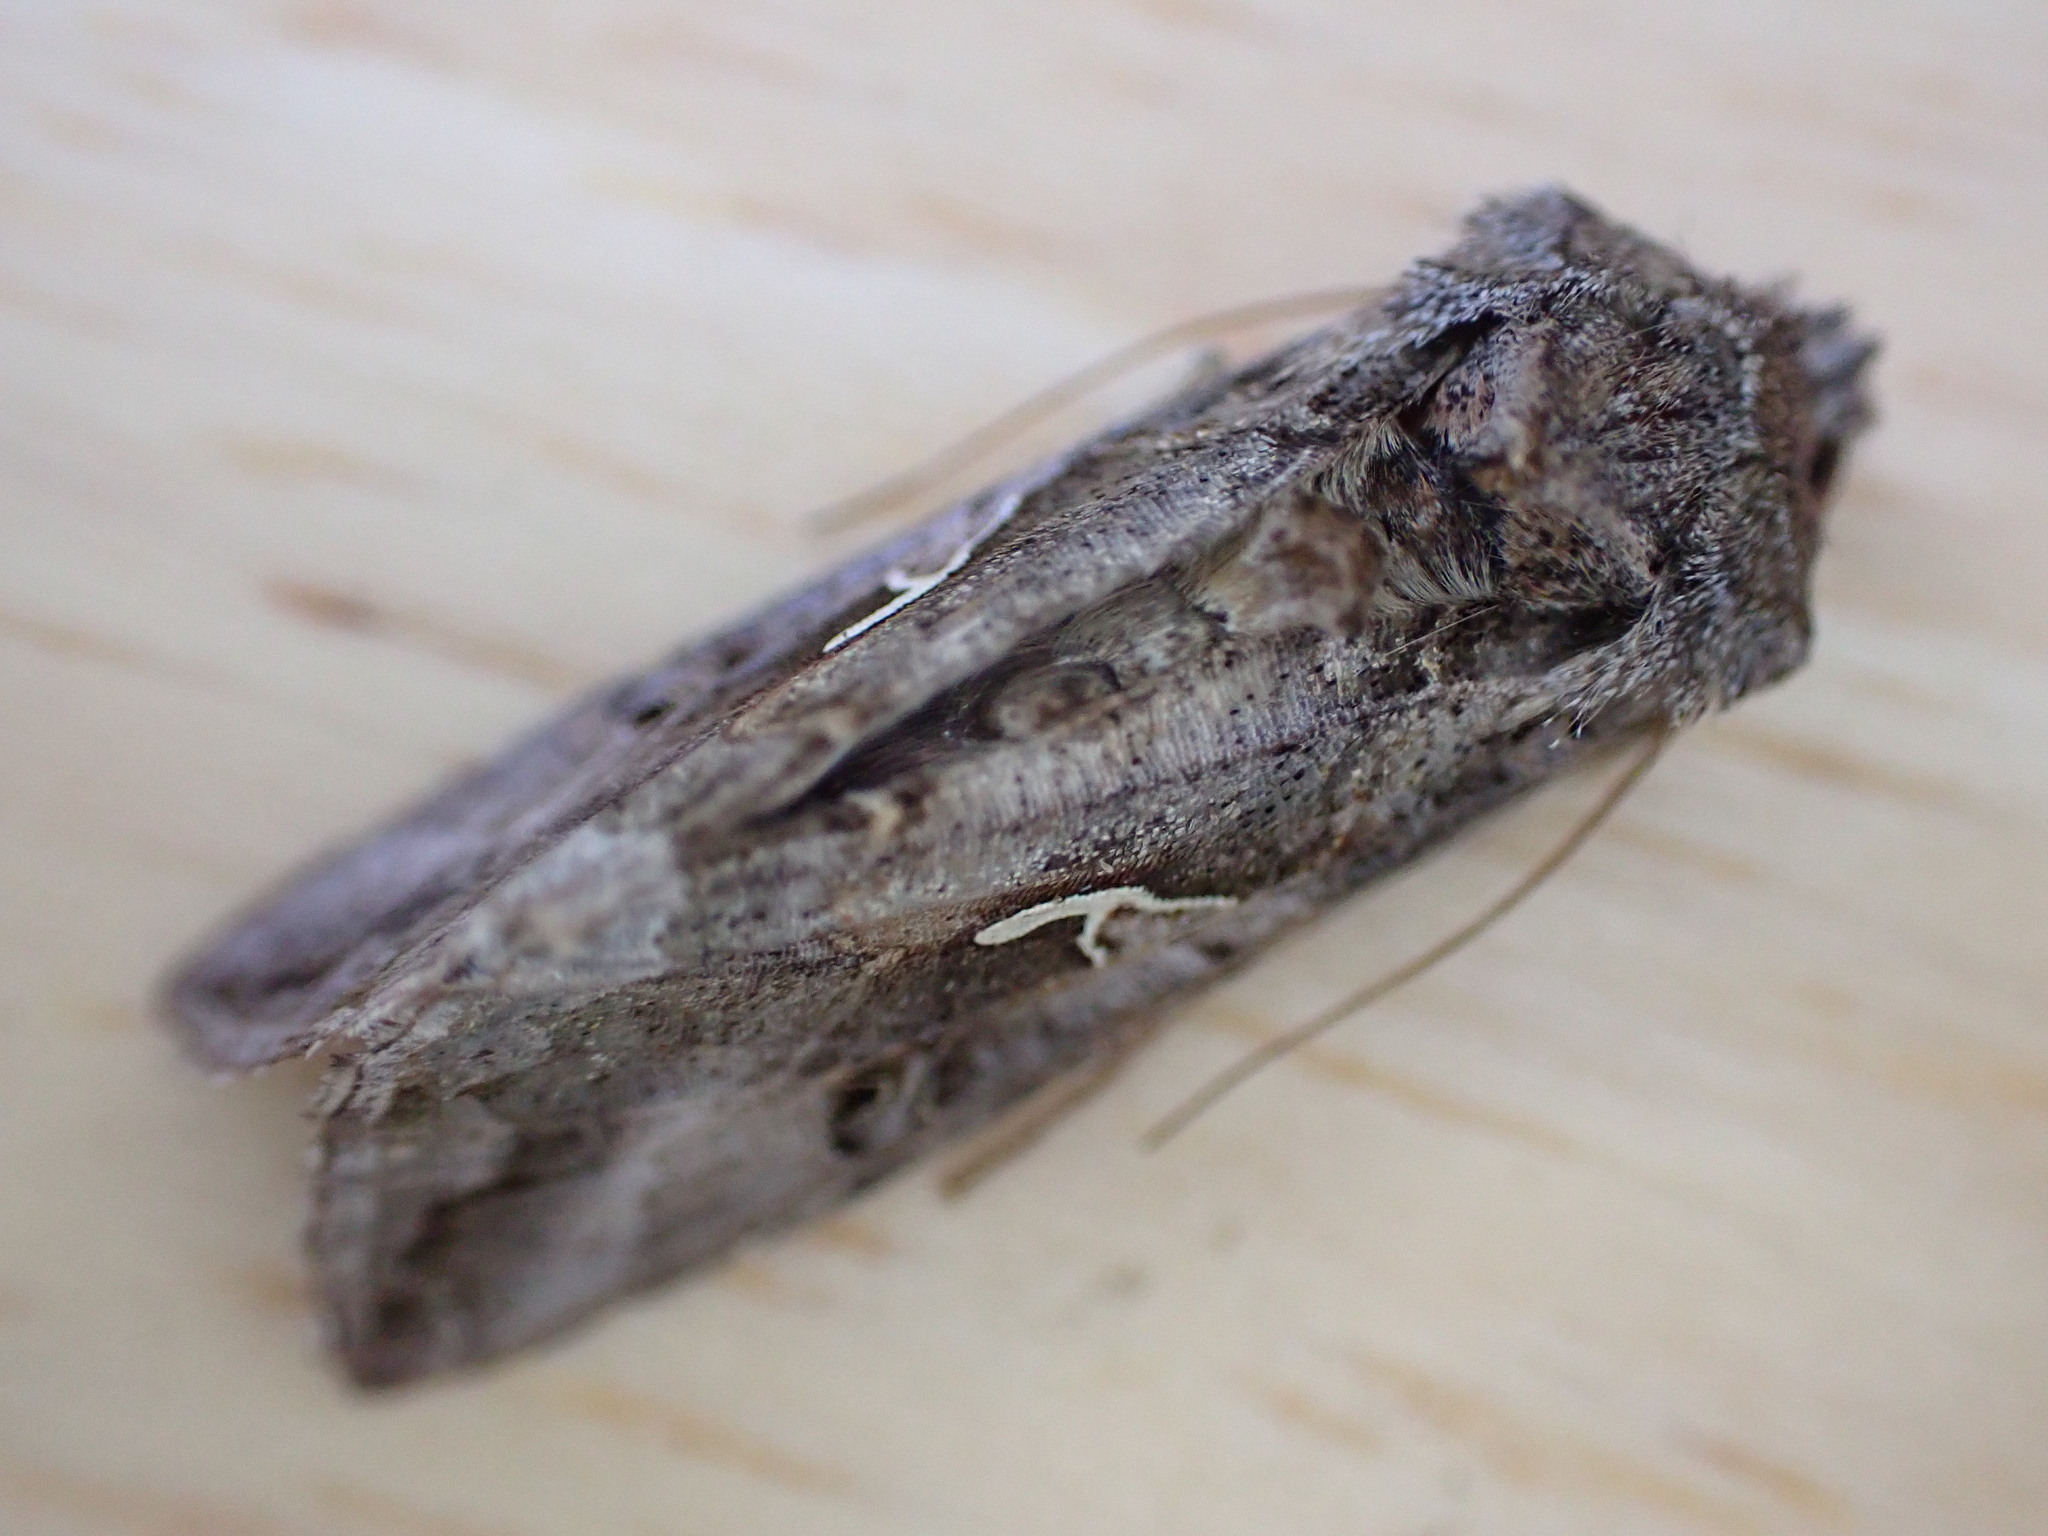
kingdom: Animalia
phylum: Arthropoda
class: Insecta
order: Lepidoptera
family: Noctuidae
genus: Autographa
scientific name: Autographa gamma
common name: Silver y
